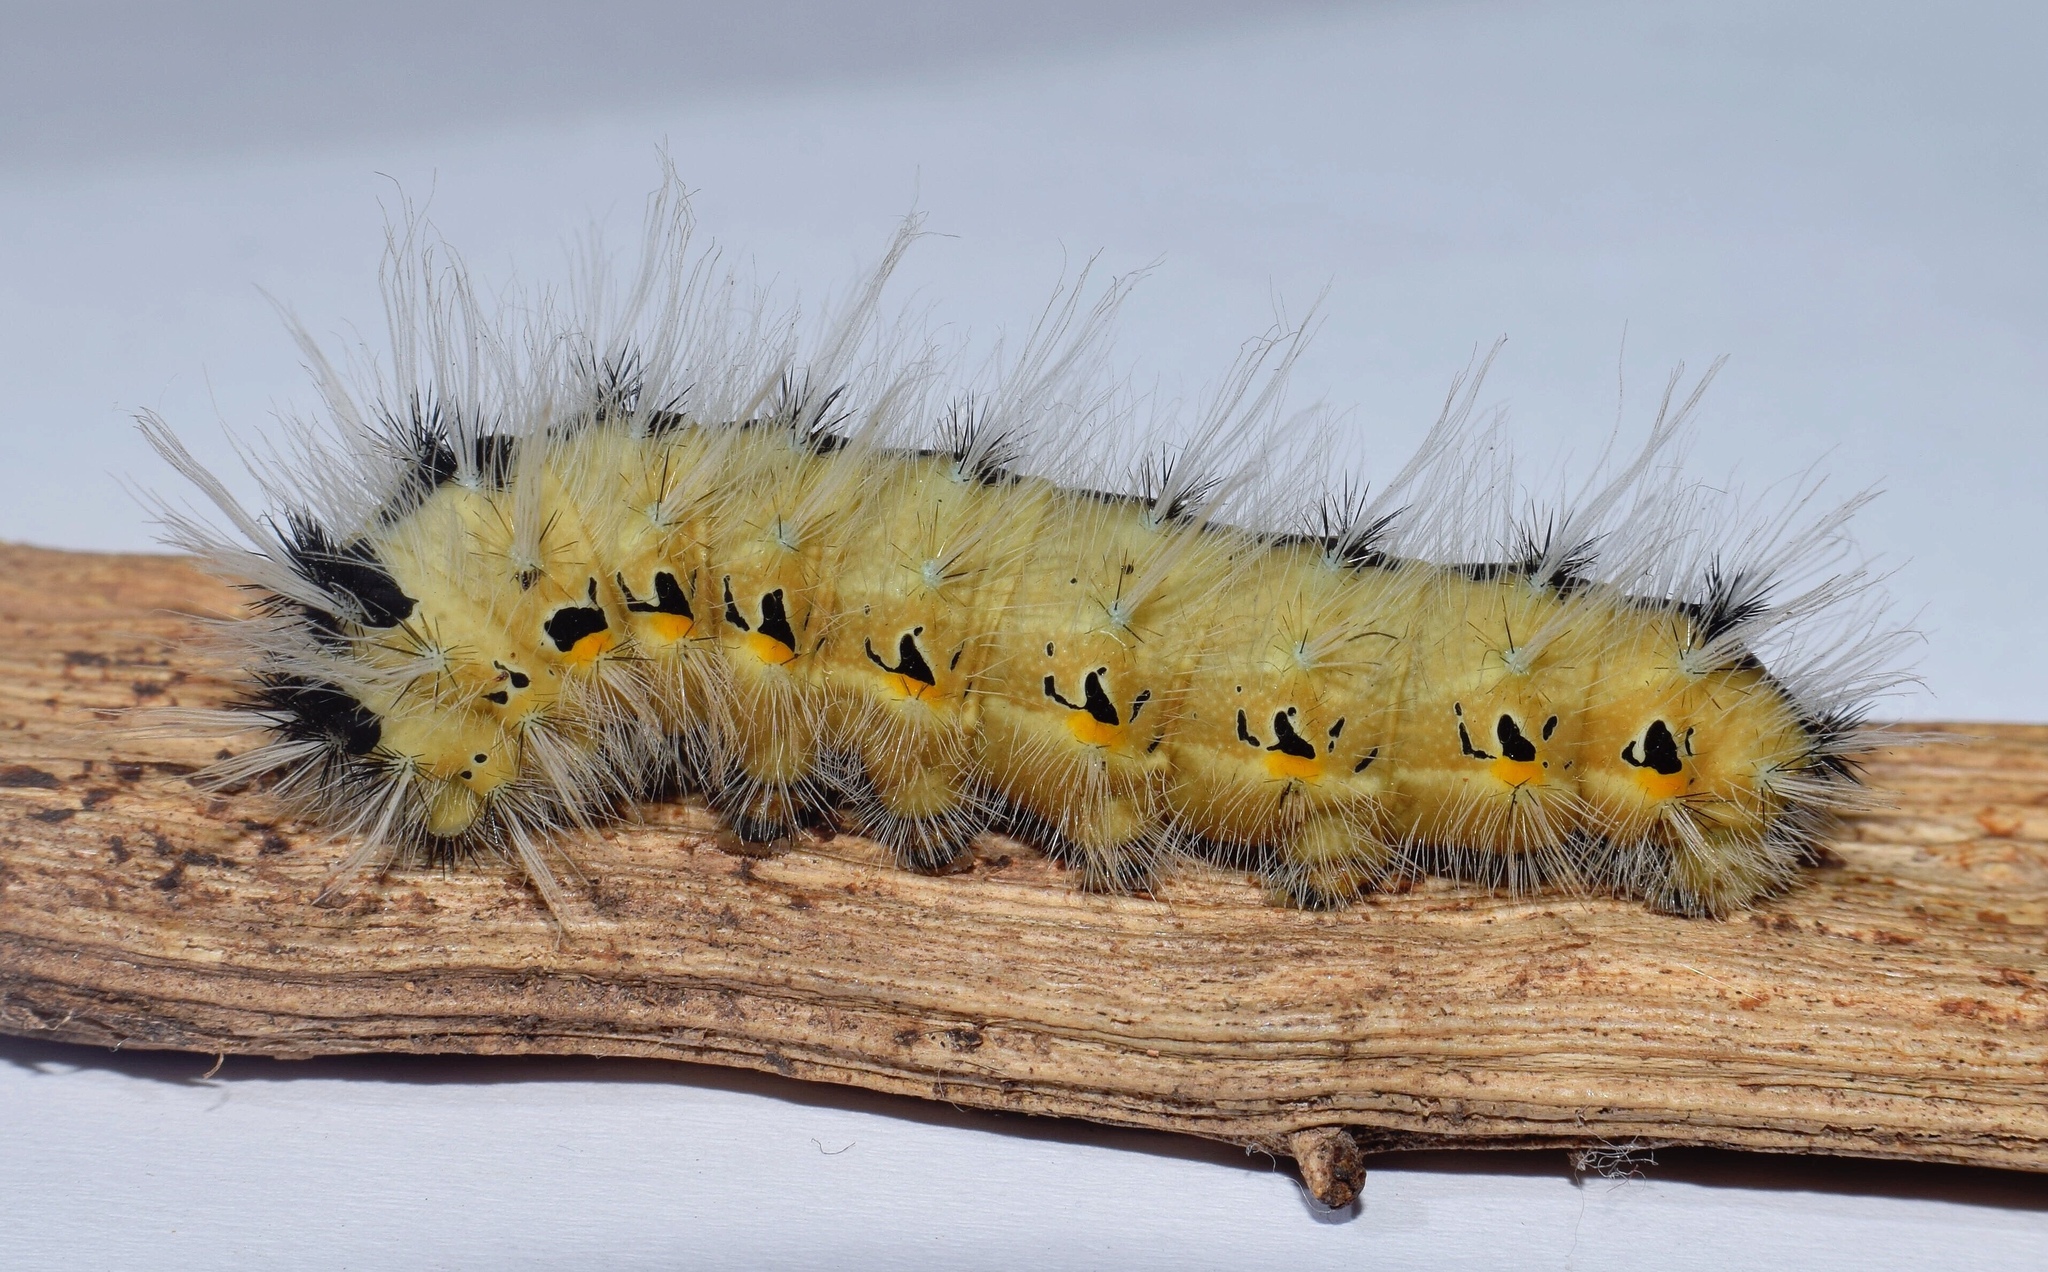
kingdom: Animalia
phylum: Arthropoda
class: Insecta
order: Lepidoptera
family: Saturniidae
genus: Ludia
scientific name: Ludia delegorguei
